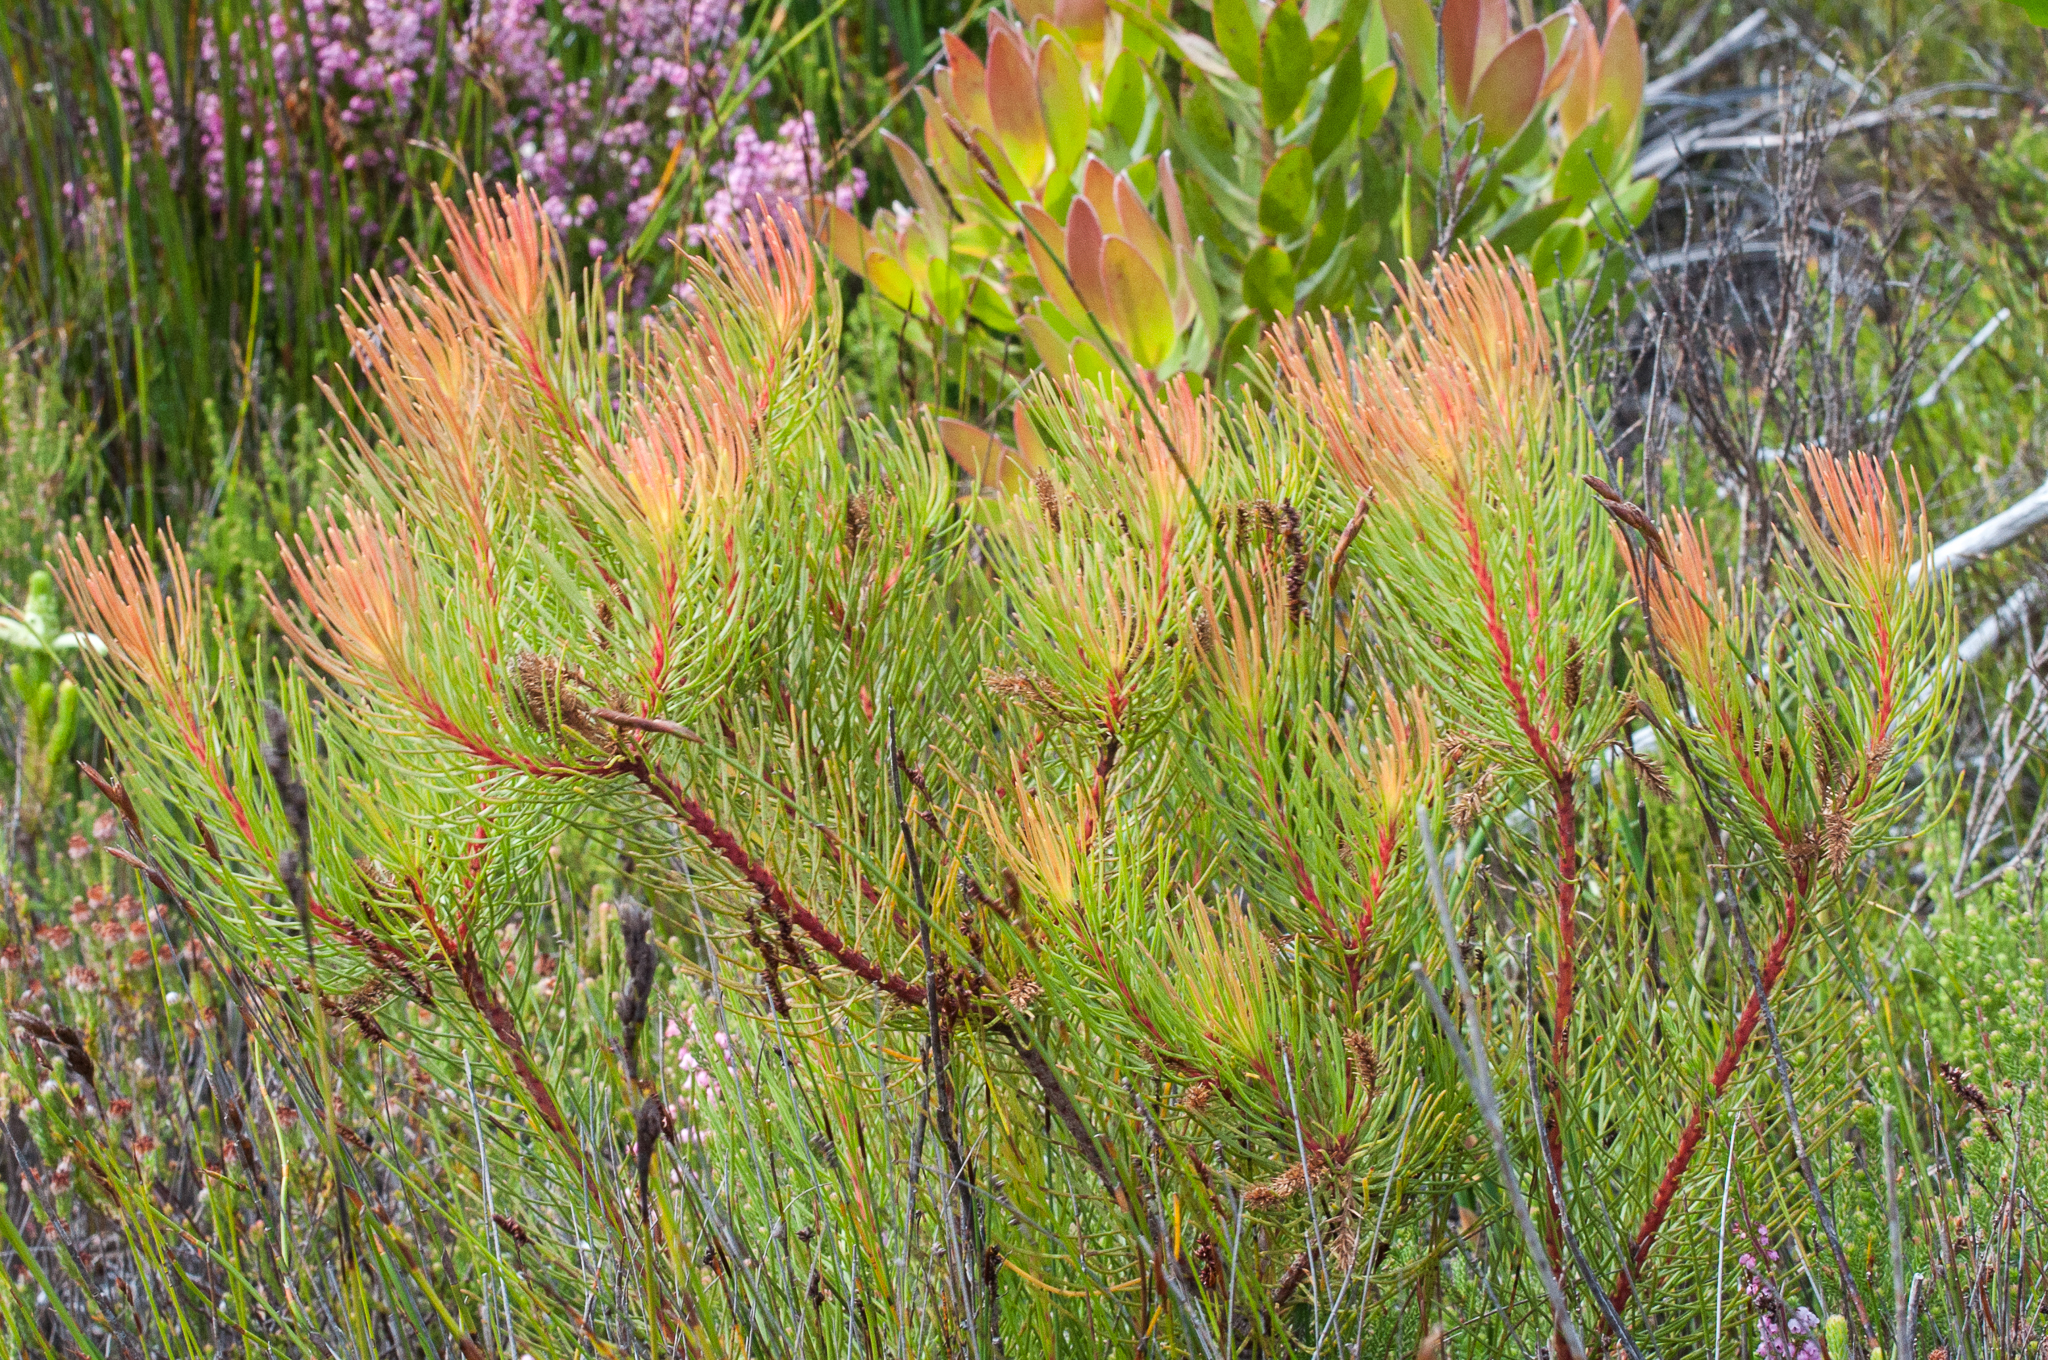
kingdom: Plantae
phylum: Tracheophyta
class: Magnoliopsida
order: Proteales
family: Proteaceae
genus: Aulax
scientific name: Aulax cancellata
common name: Channel-leaf featherbush
